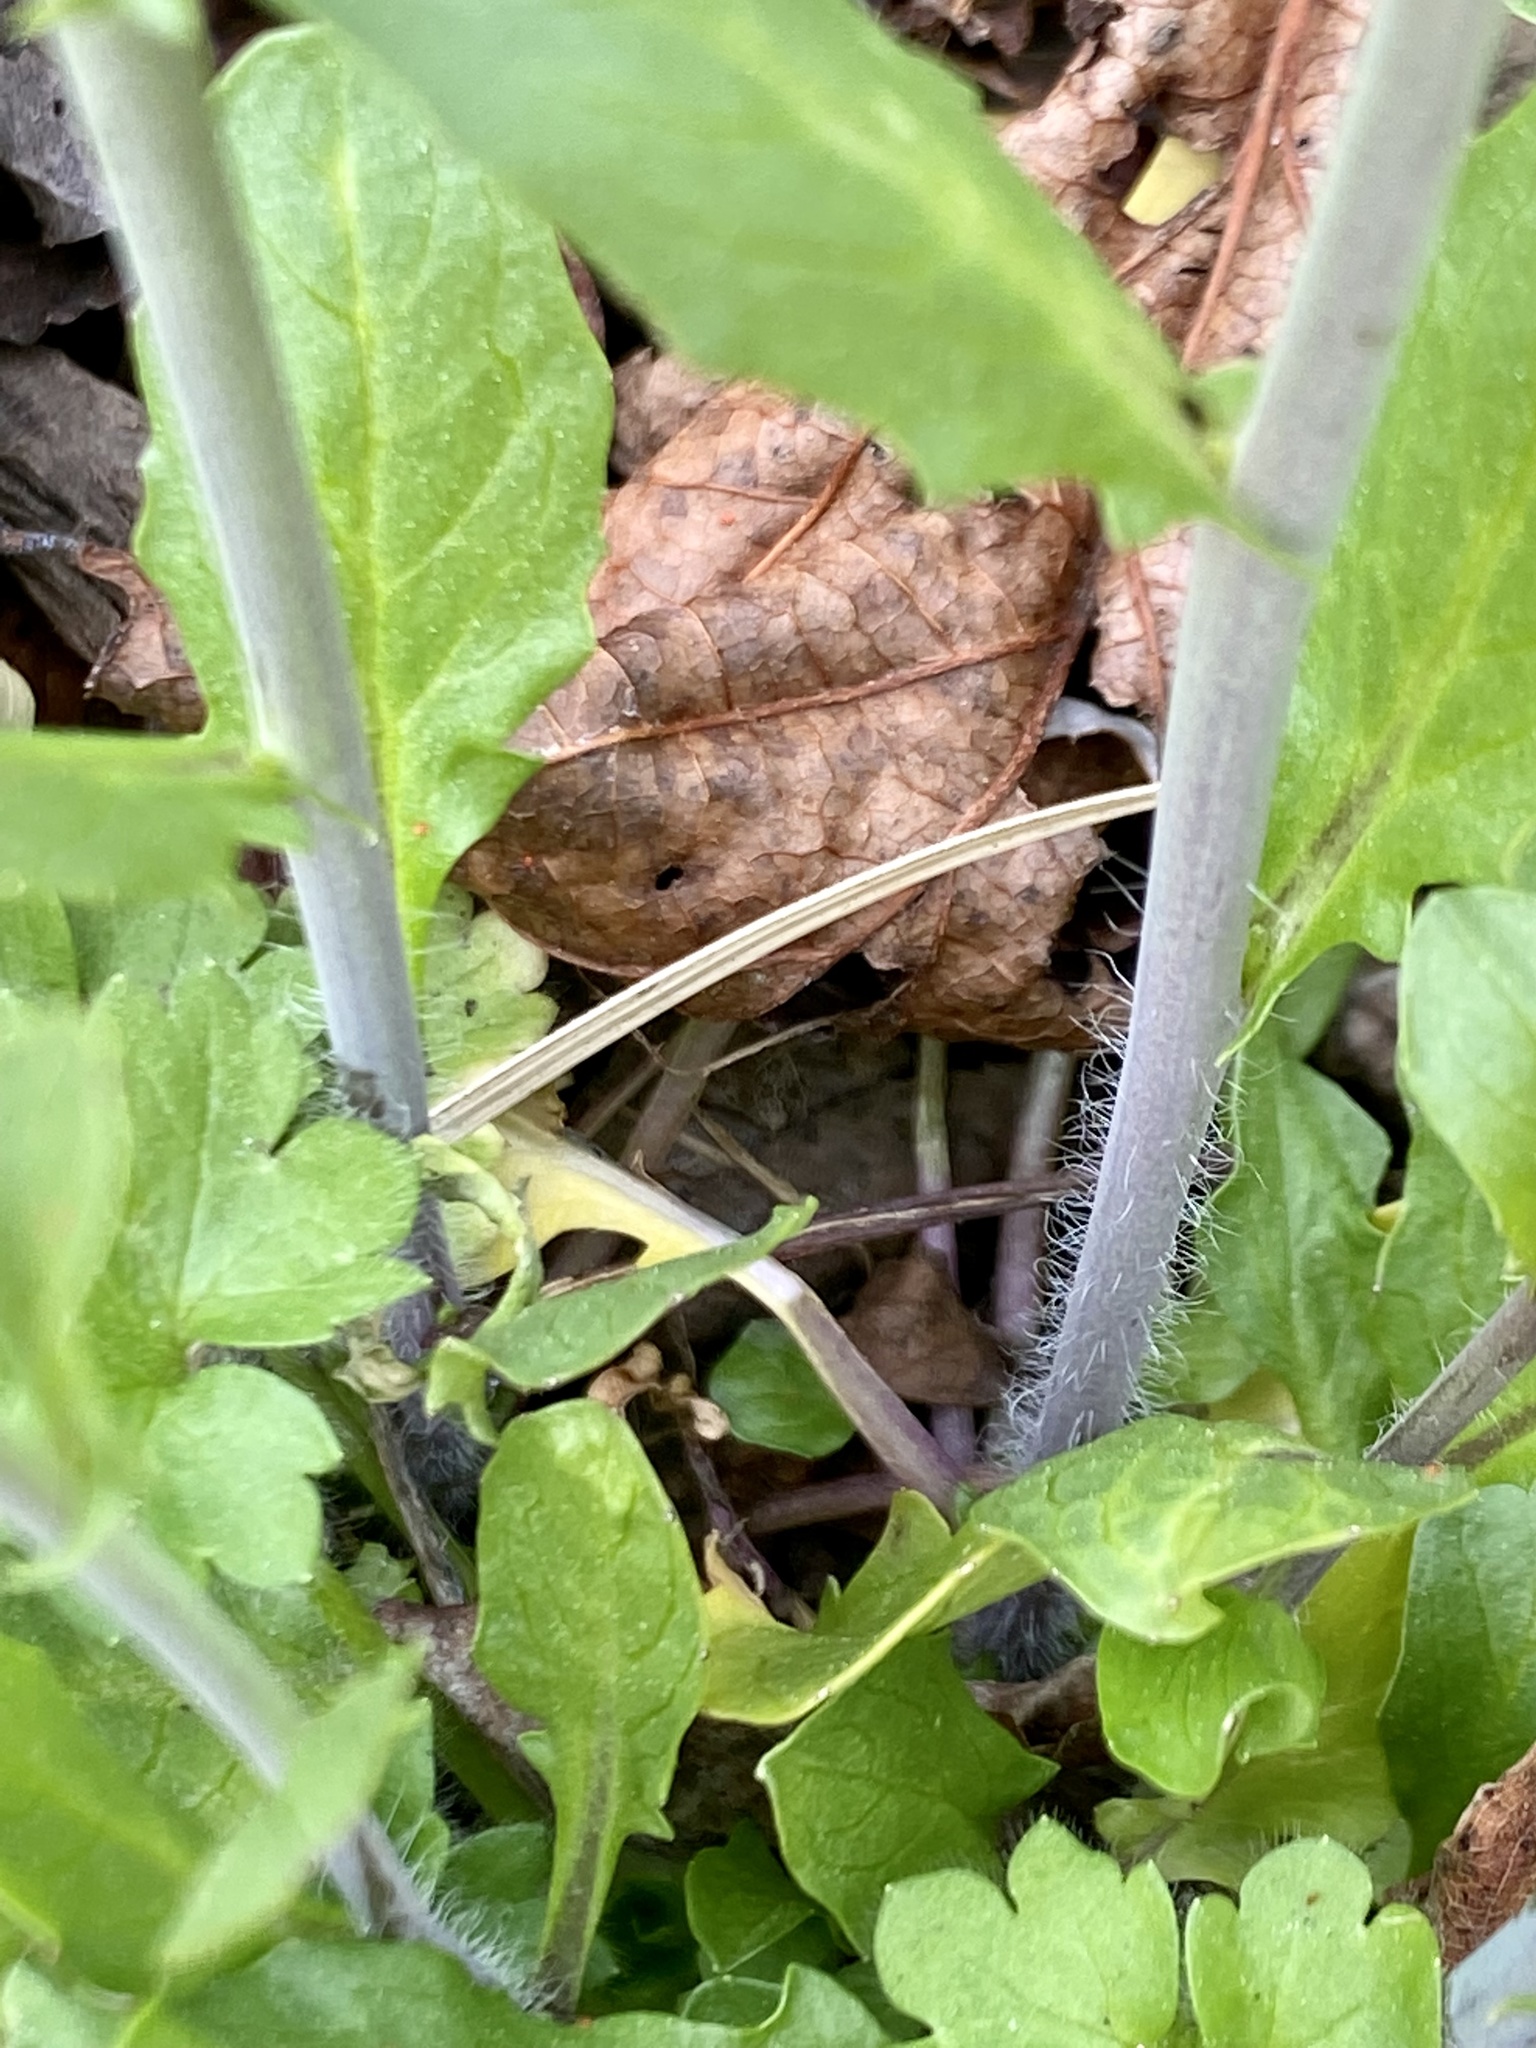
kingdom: Plantae
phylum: Tracheophyta
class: Magnoliopsida
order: Brassicales
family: Brassicaceae
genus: Mummenhoffia
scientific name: Mummenhoffia alliacea
